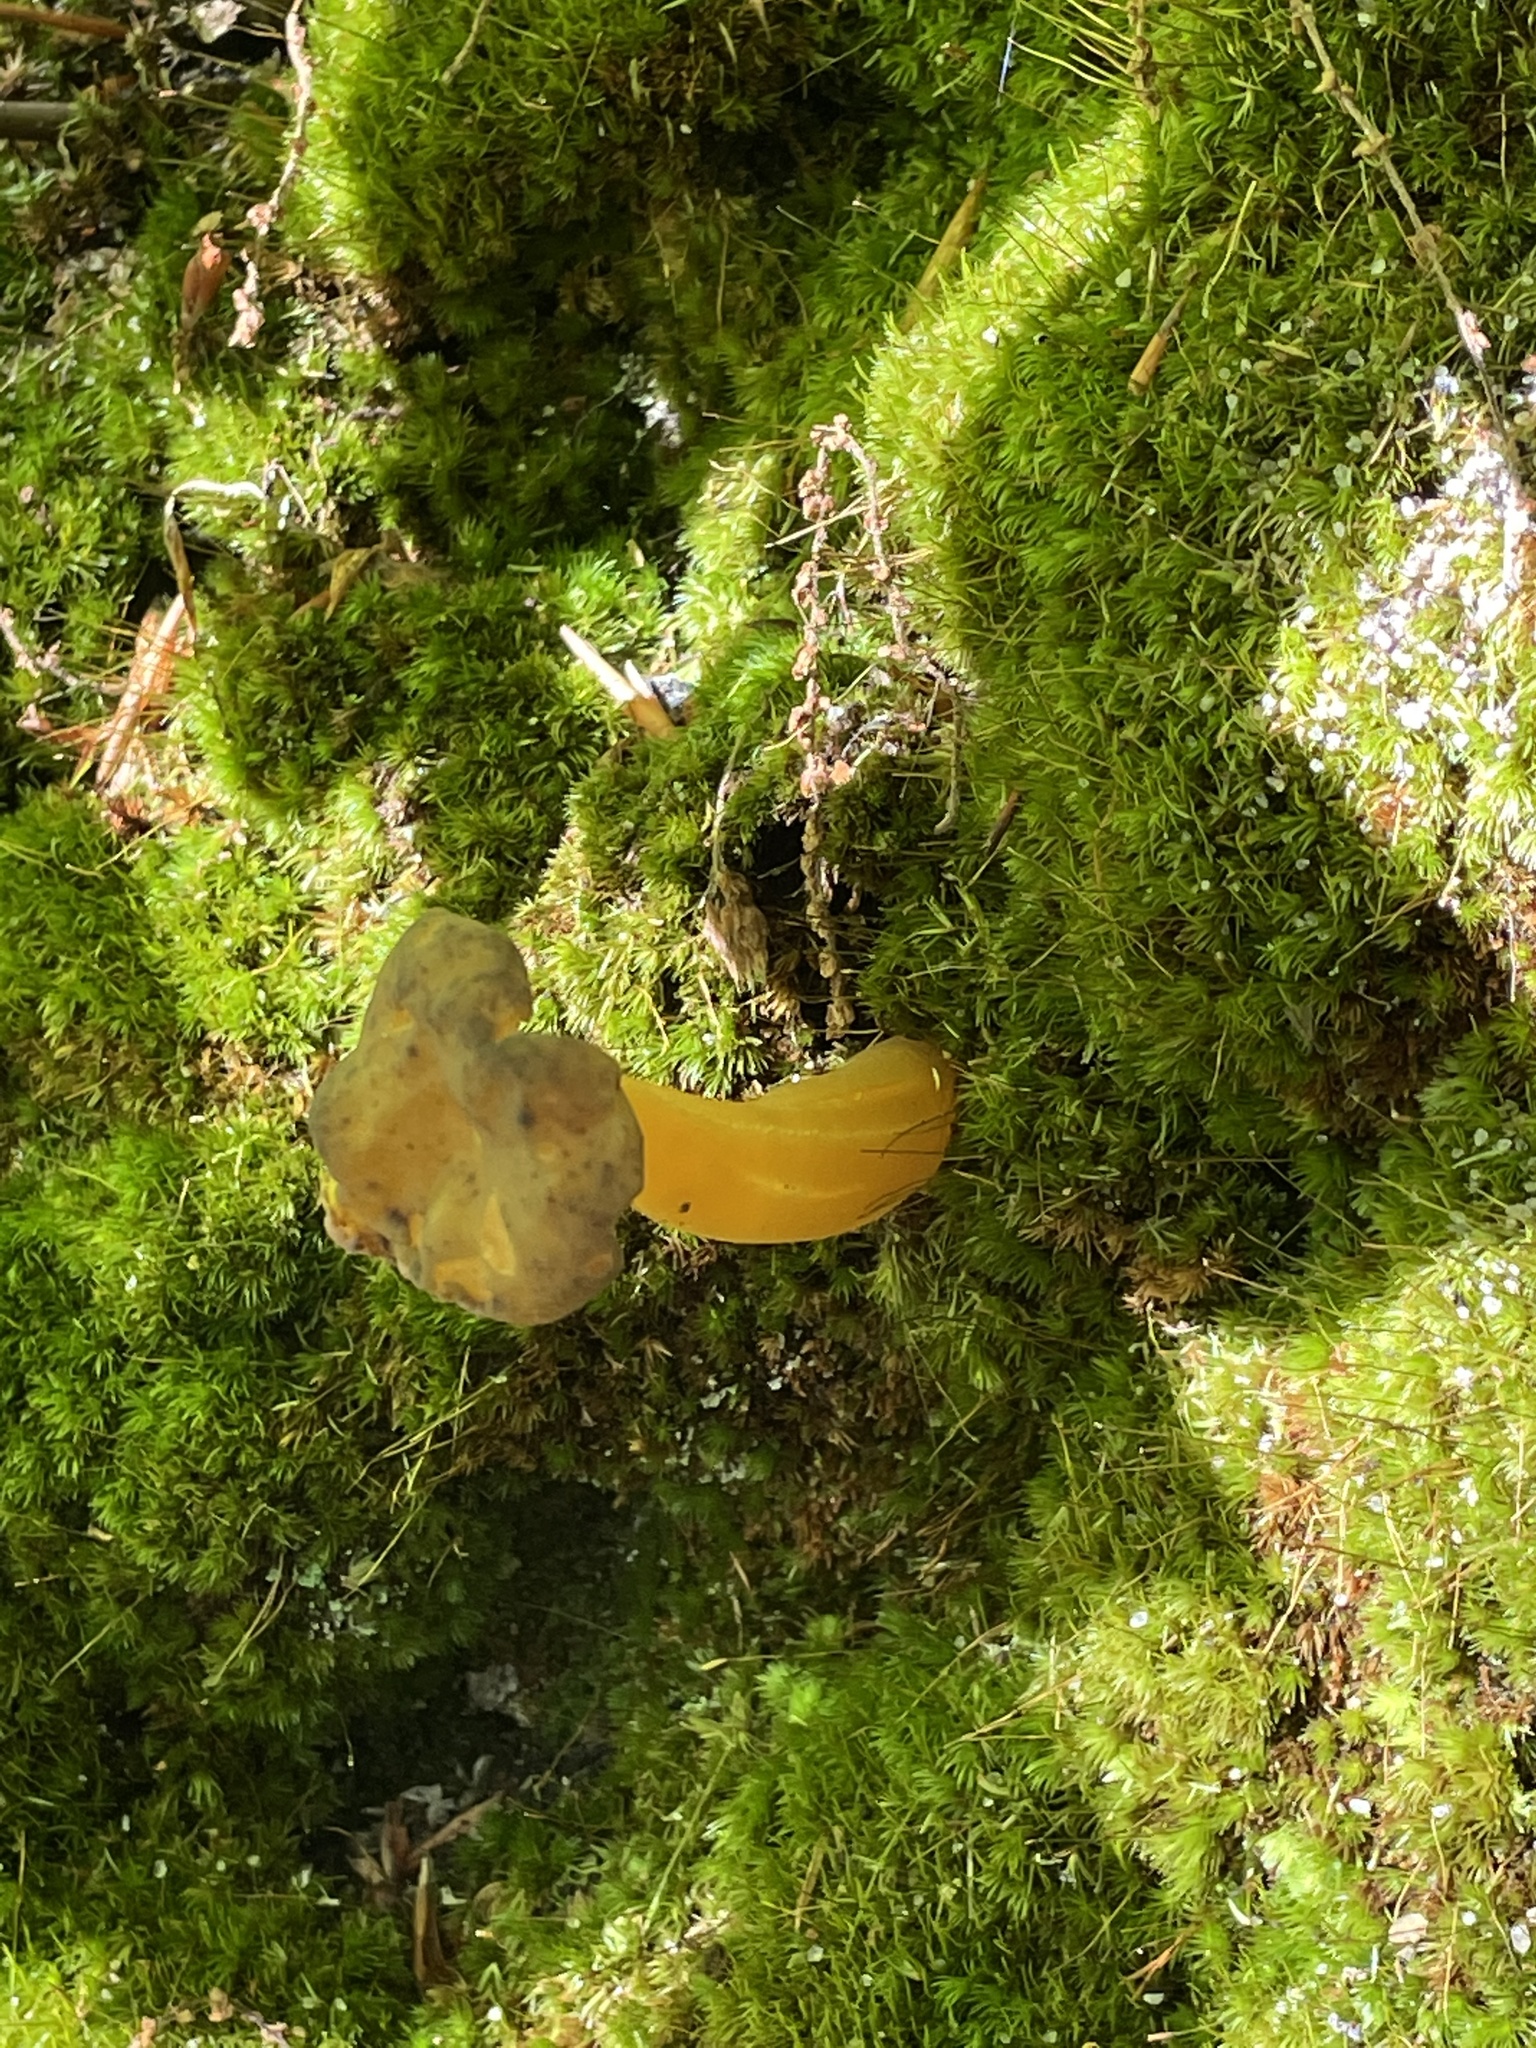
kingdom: Fungi
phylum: Ascomycota
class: Leotiomycetes
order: Leotiales
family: Leotiaceae
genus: Leotia
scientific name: Leotia lubrica
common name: Jellybaby
